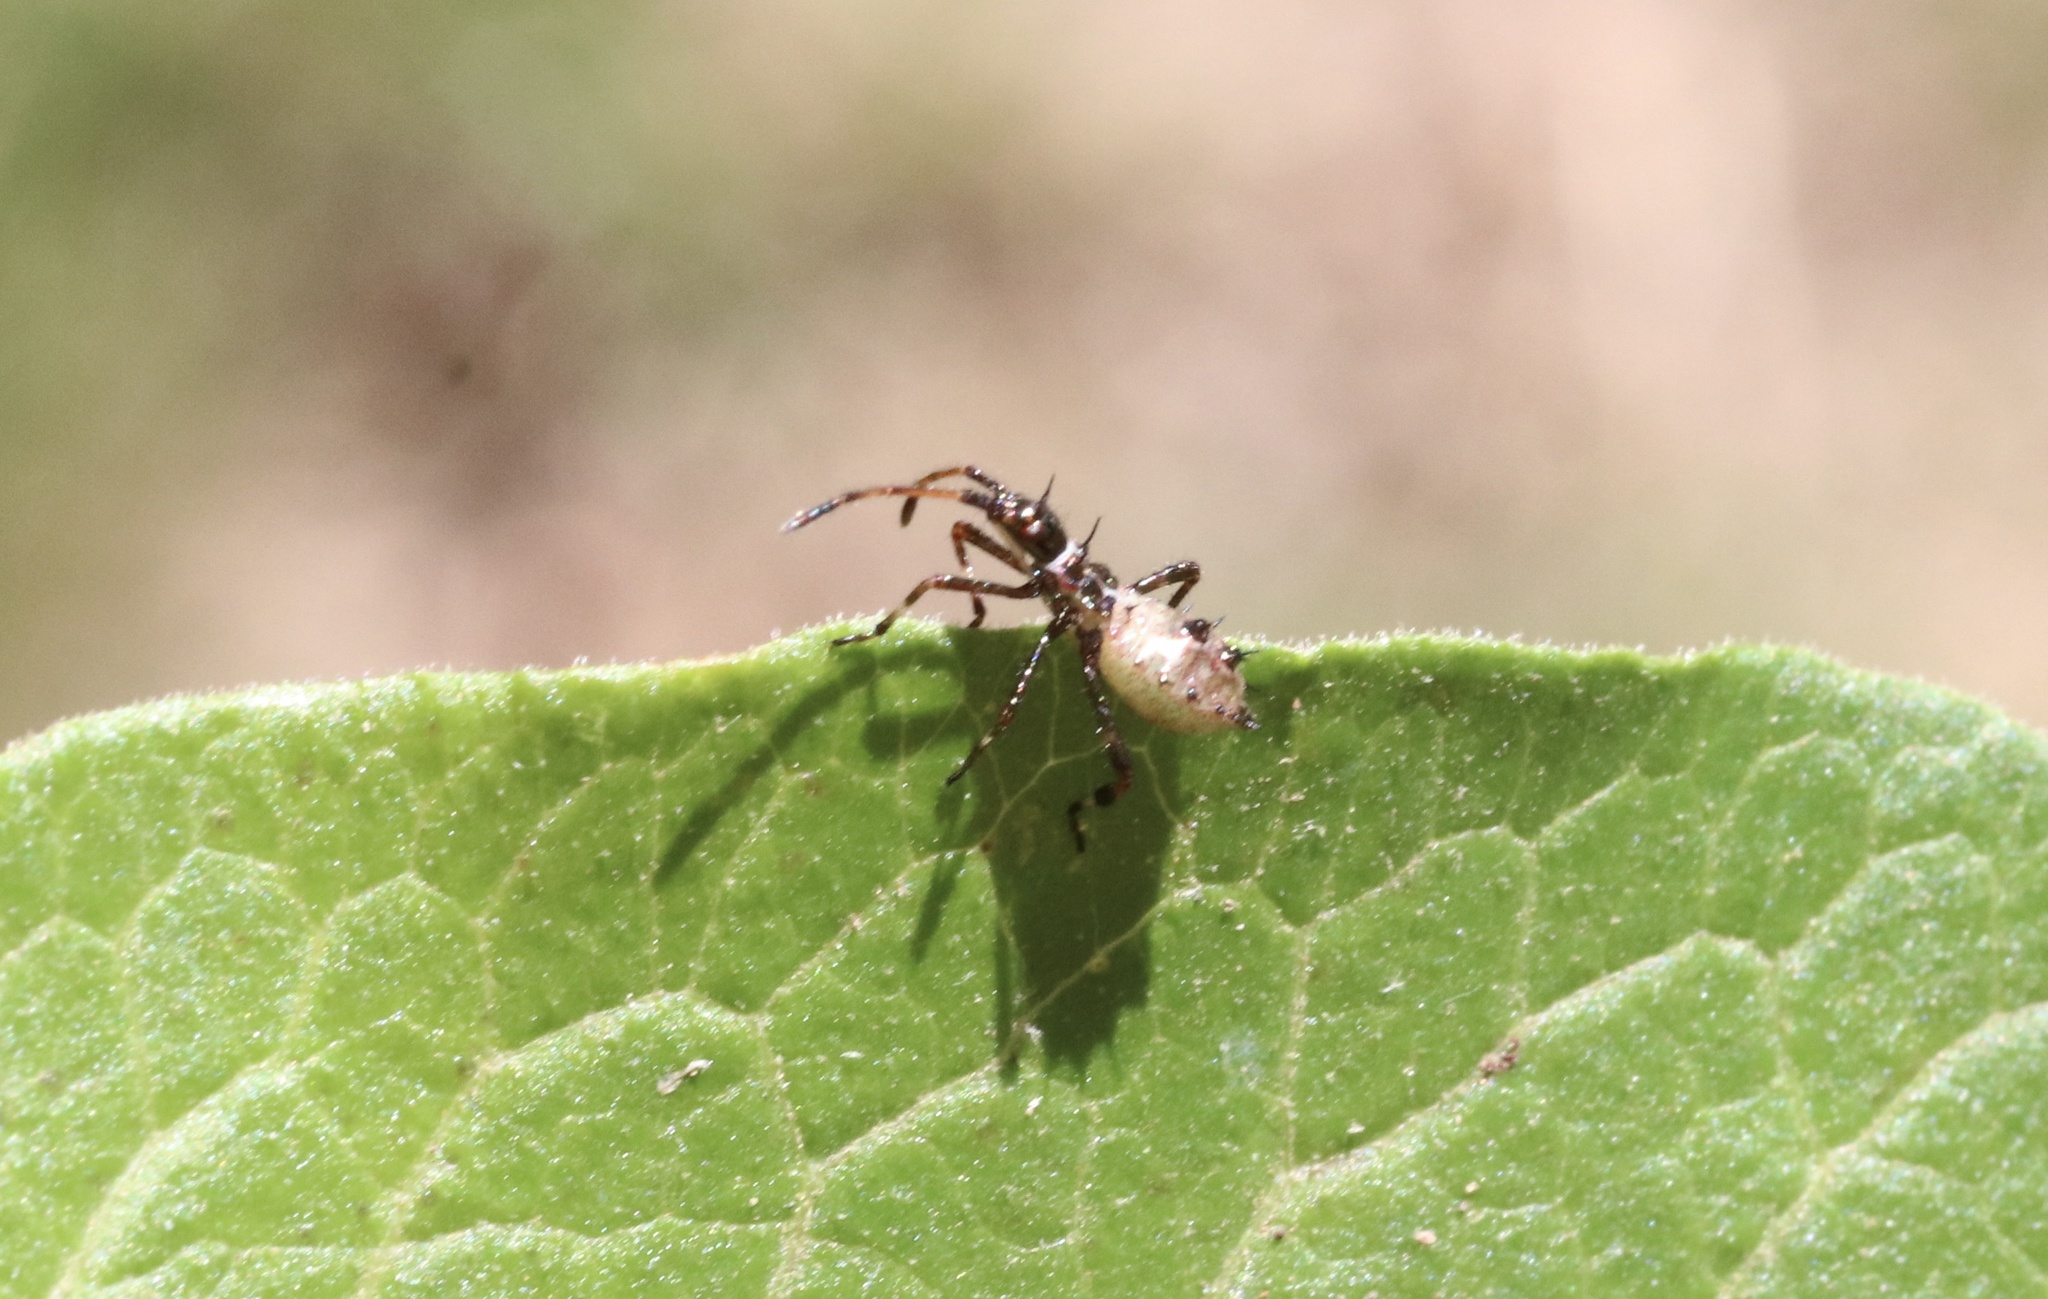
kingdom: Animalia
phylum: Arthropoda
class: Insecta
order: Hemiptera
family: Coreidae
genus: Leptoglossus
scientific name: Leptoglossus chilensis
